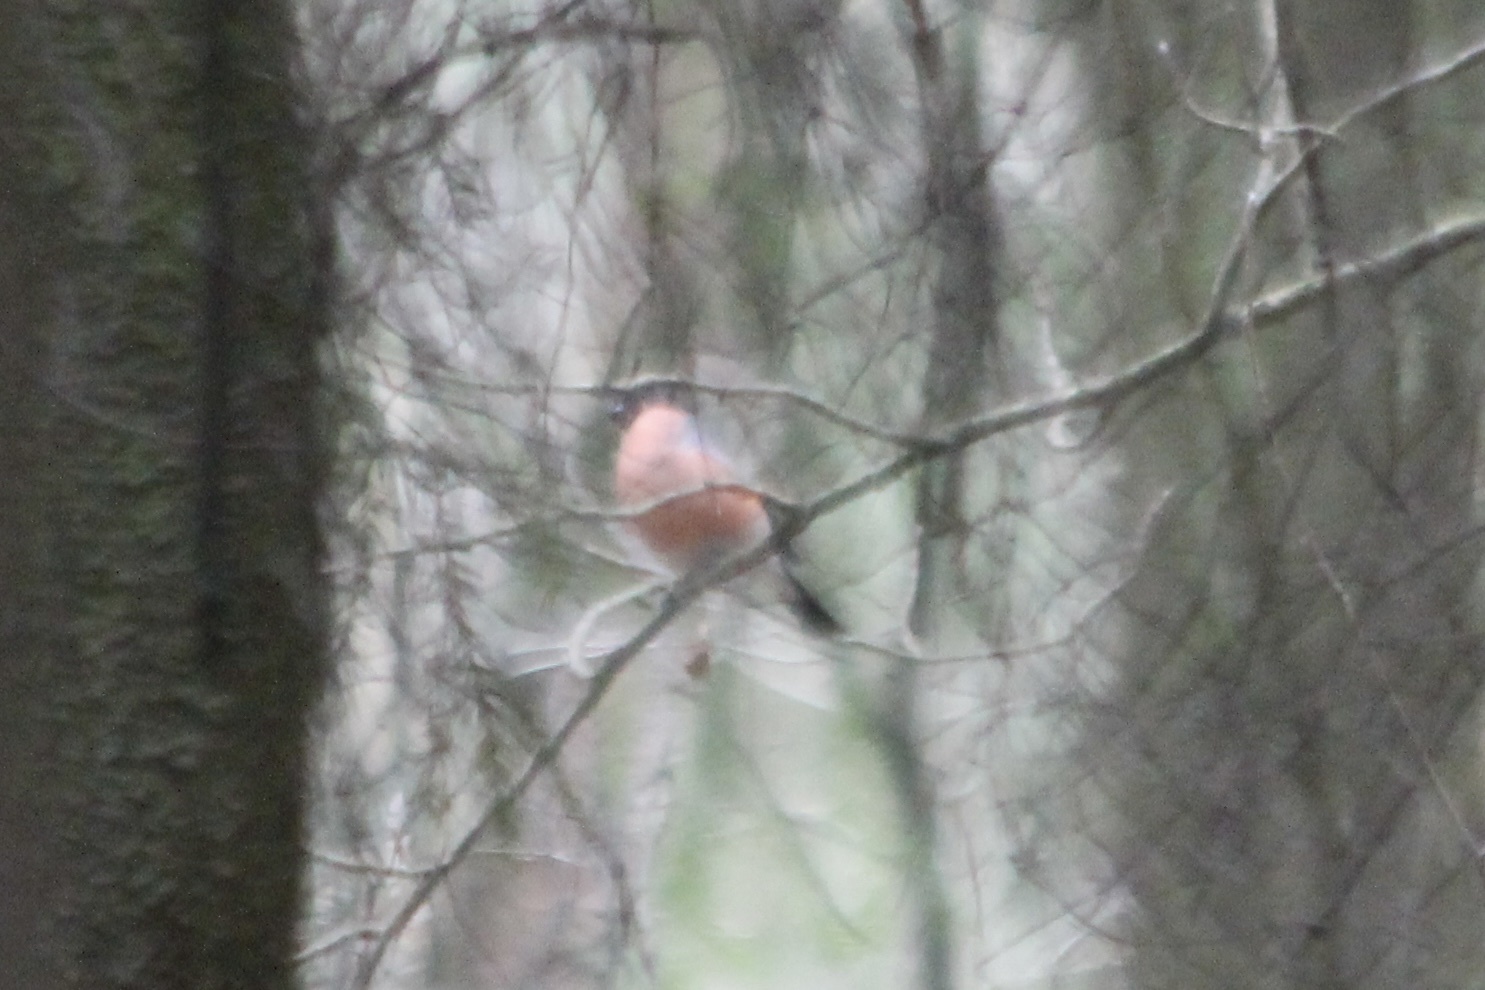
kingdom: Animalia
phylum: Chordata
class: Aves
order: Passeriformes
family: Fringillidae
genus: Pyrrhula
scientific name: Pyrrhula pyrrhula
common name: Eurasian bullfinch
